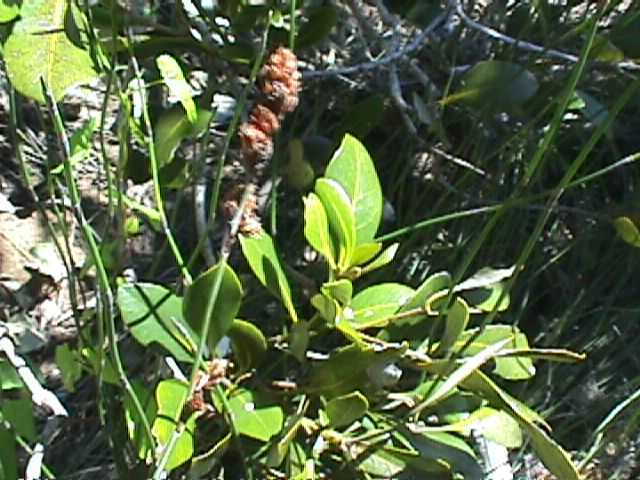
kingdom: Plantae
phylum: Tracheophyta
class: Liliopsida
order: Poales
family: Restionaceae
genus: Apodasmia
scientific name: Apodasmia similis
